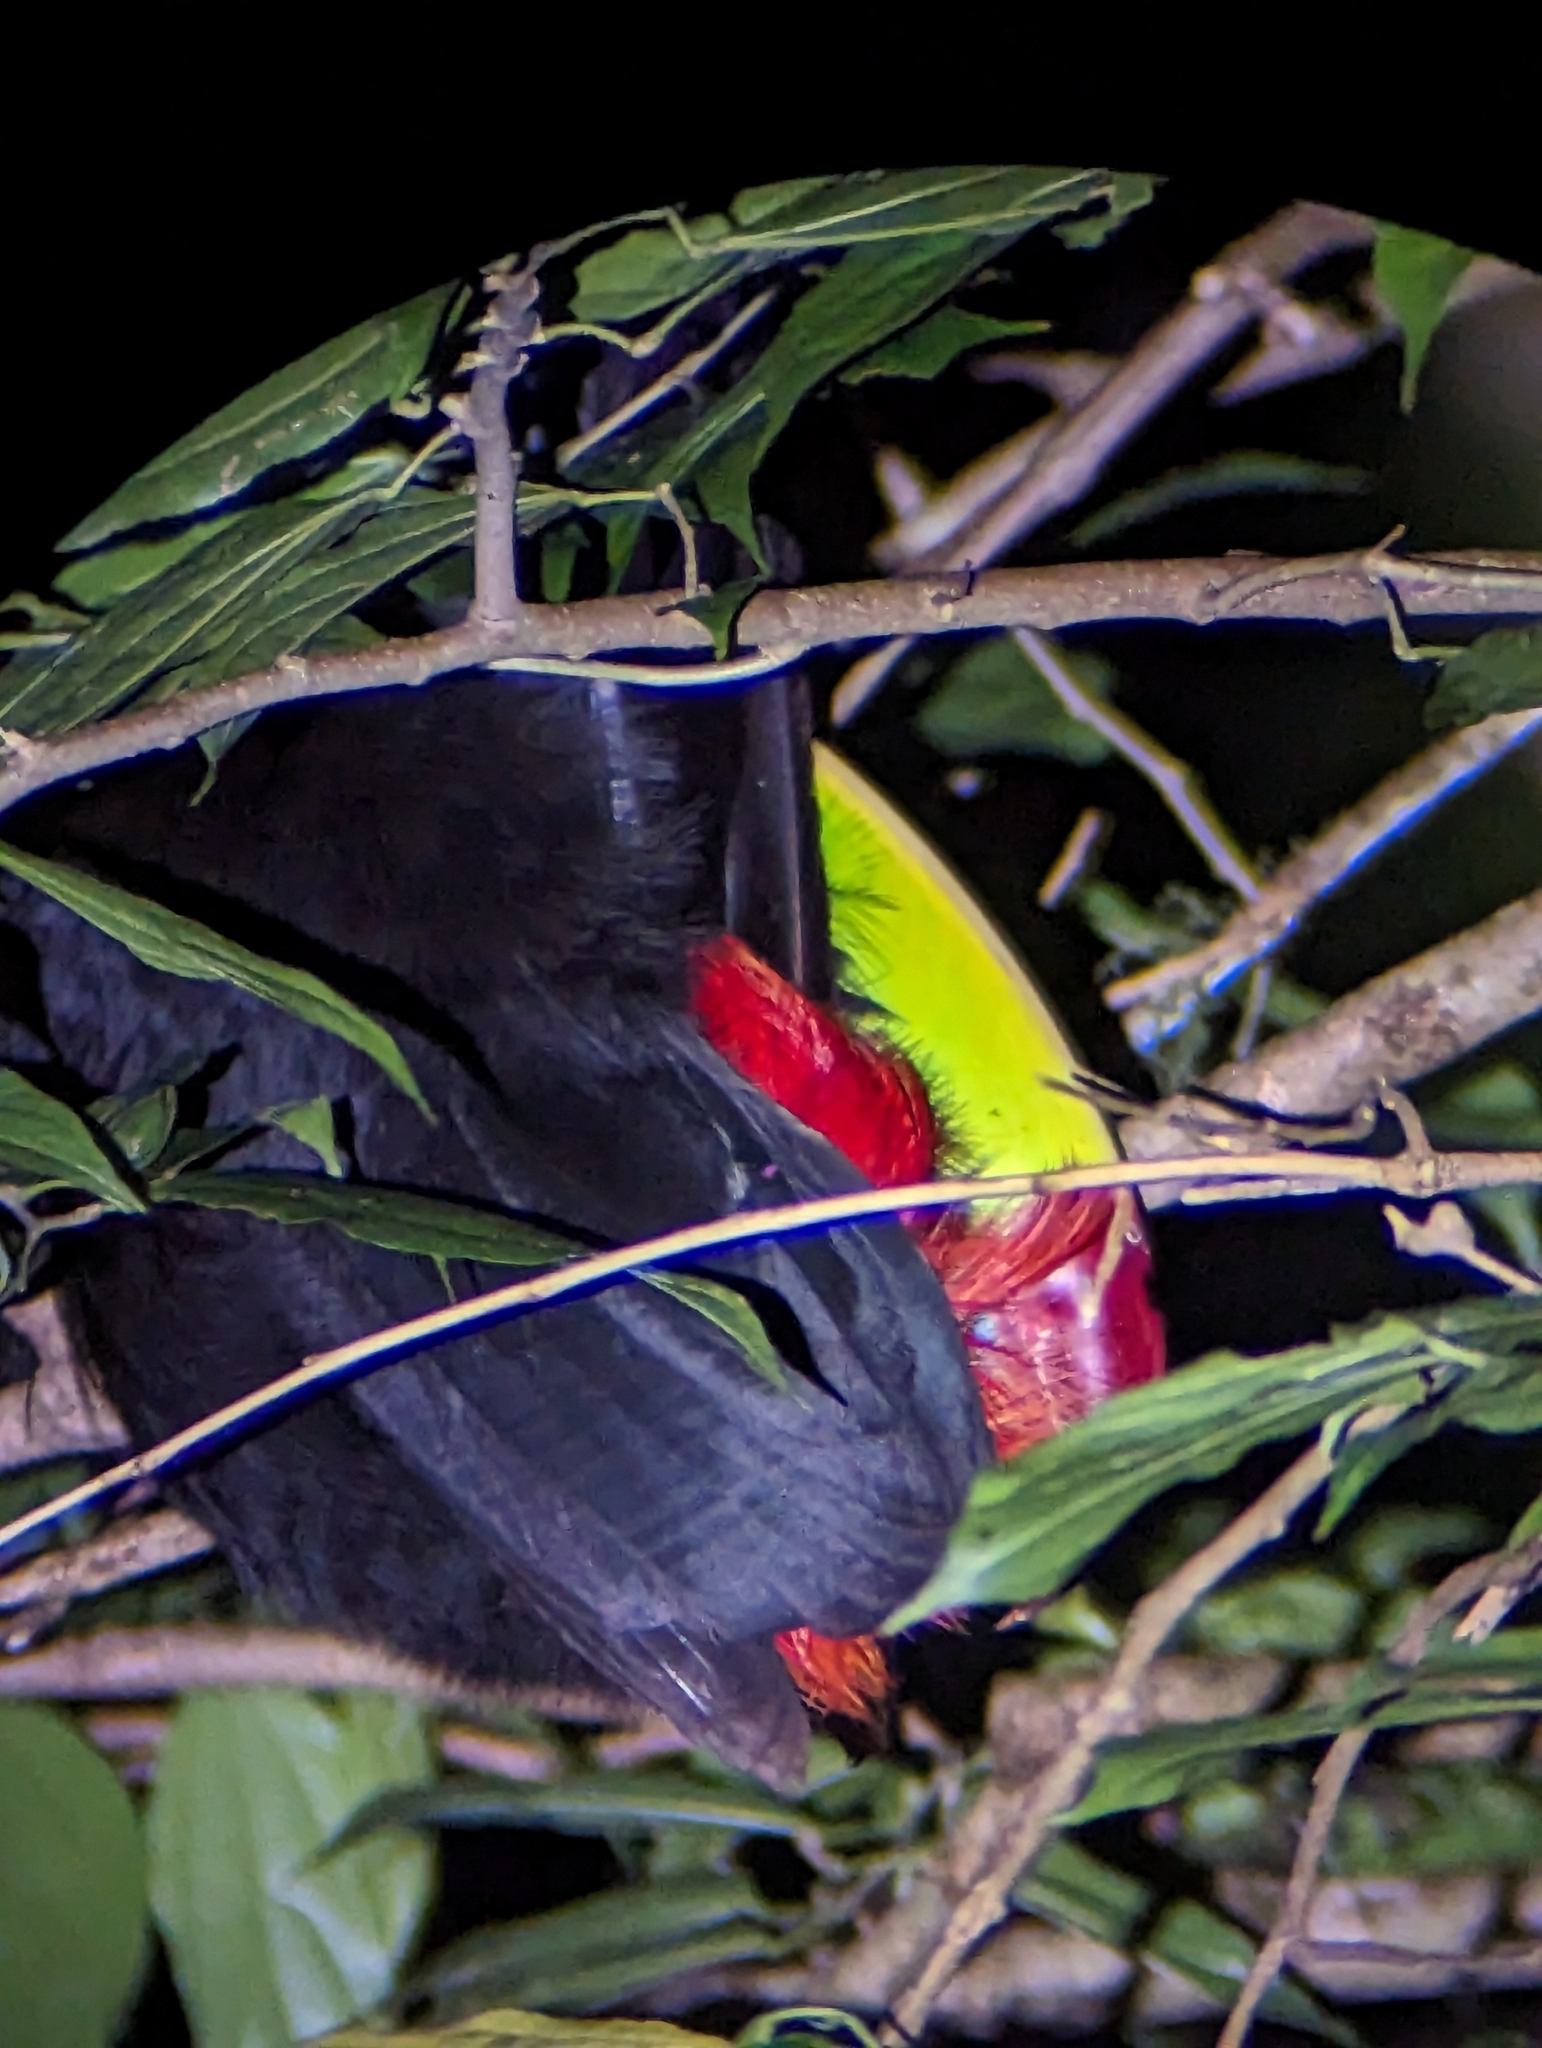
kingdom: Animalia
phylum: Chordata
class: Aves
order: Piciformes
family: Ramphastidae
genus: Ramphastos
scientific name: Ramphastos sulfuratus
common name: Keel-billed toucan
